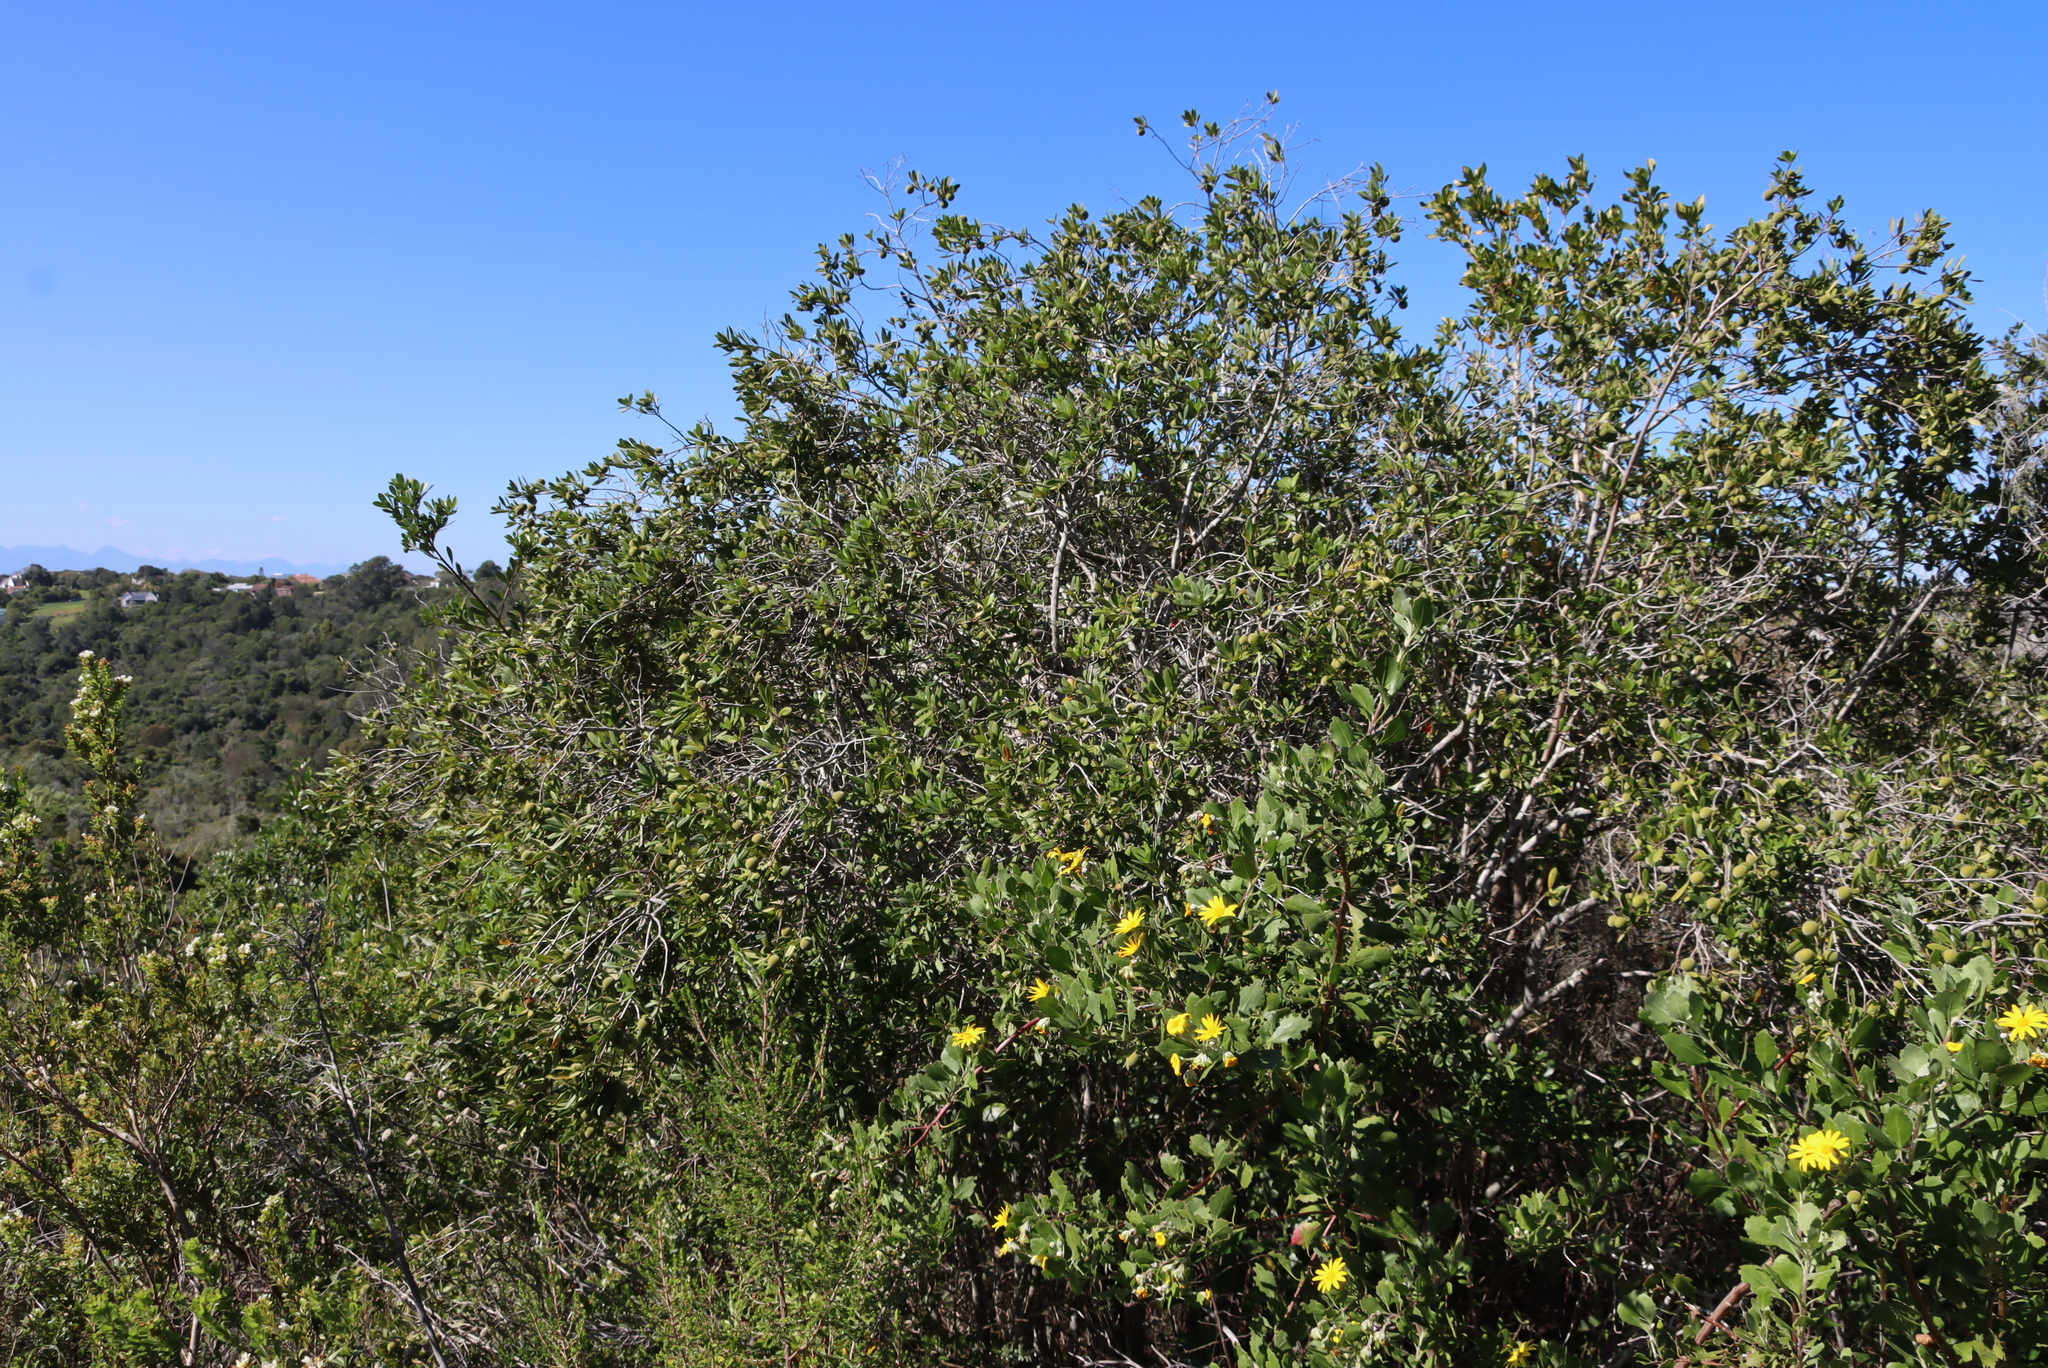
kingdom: Plantae
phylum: Tracheophyta
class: Magnoliopsida
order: Ericales
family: Ebenaceae
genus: Diospyros
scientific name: Diospyros dichrophylla
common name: Common star-apple
